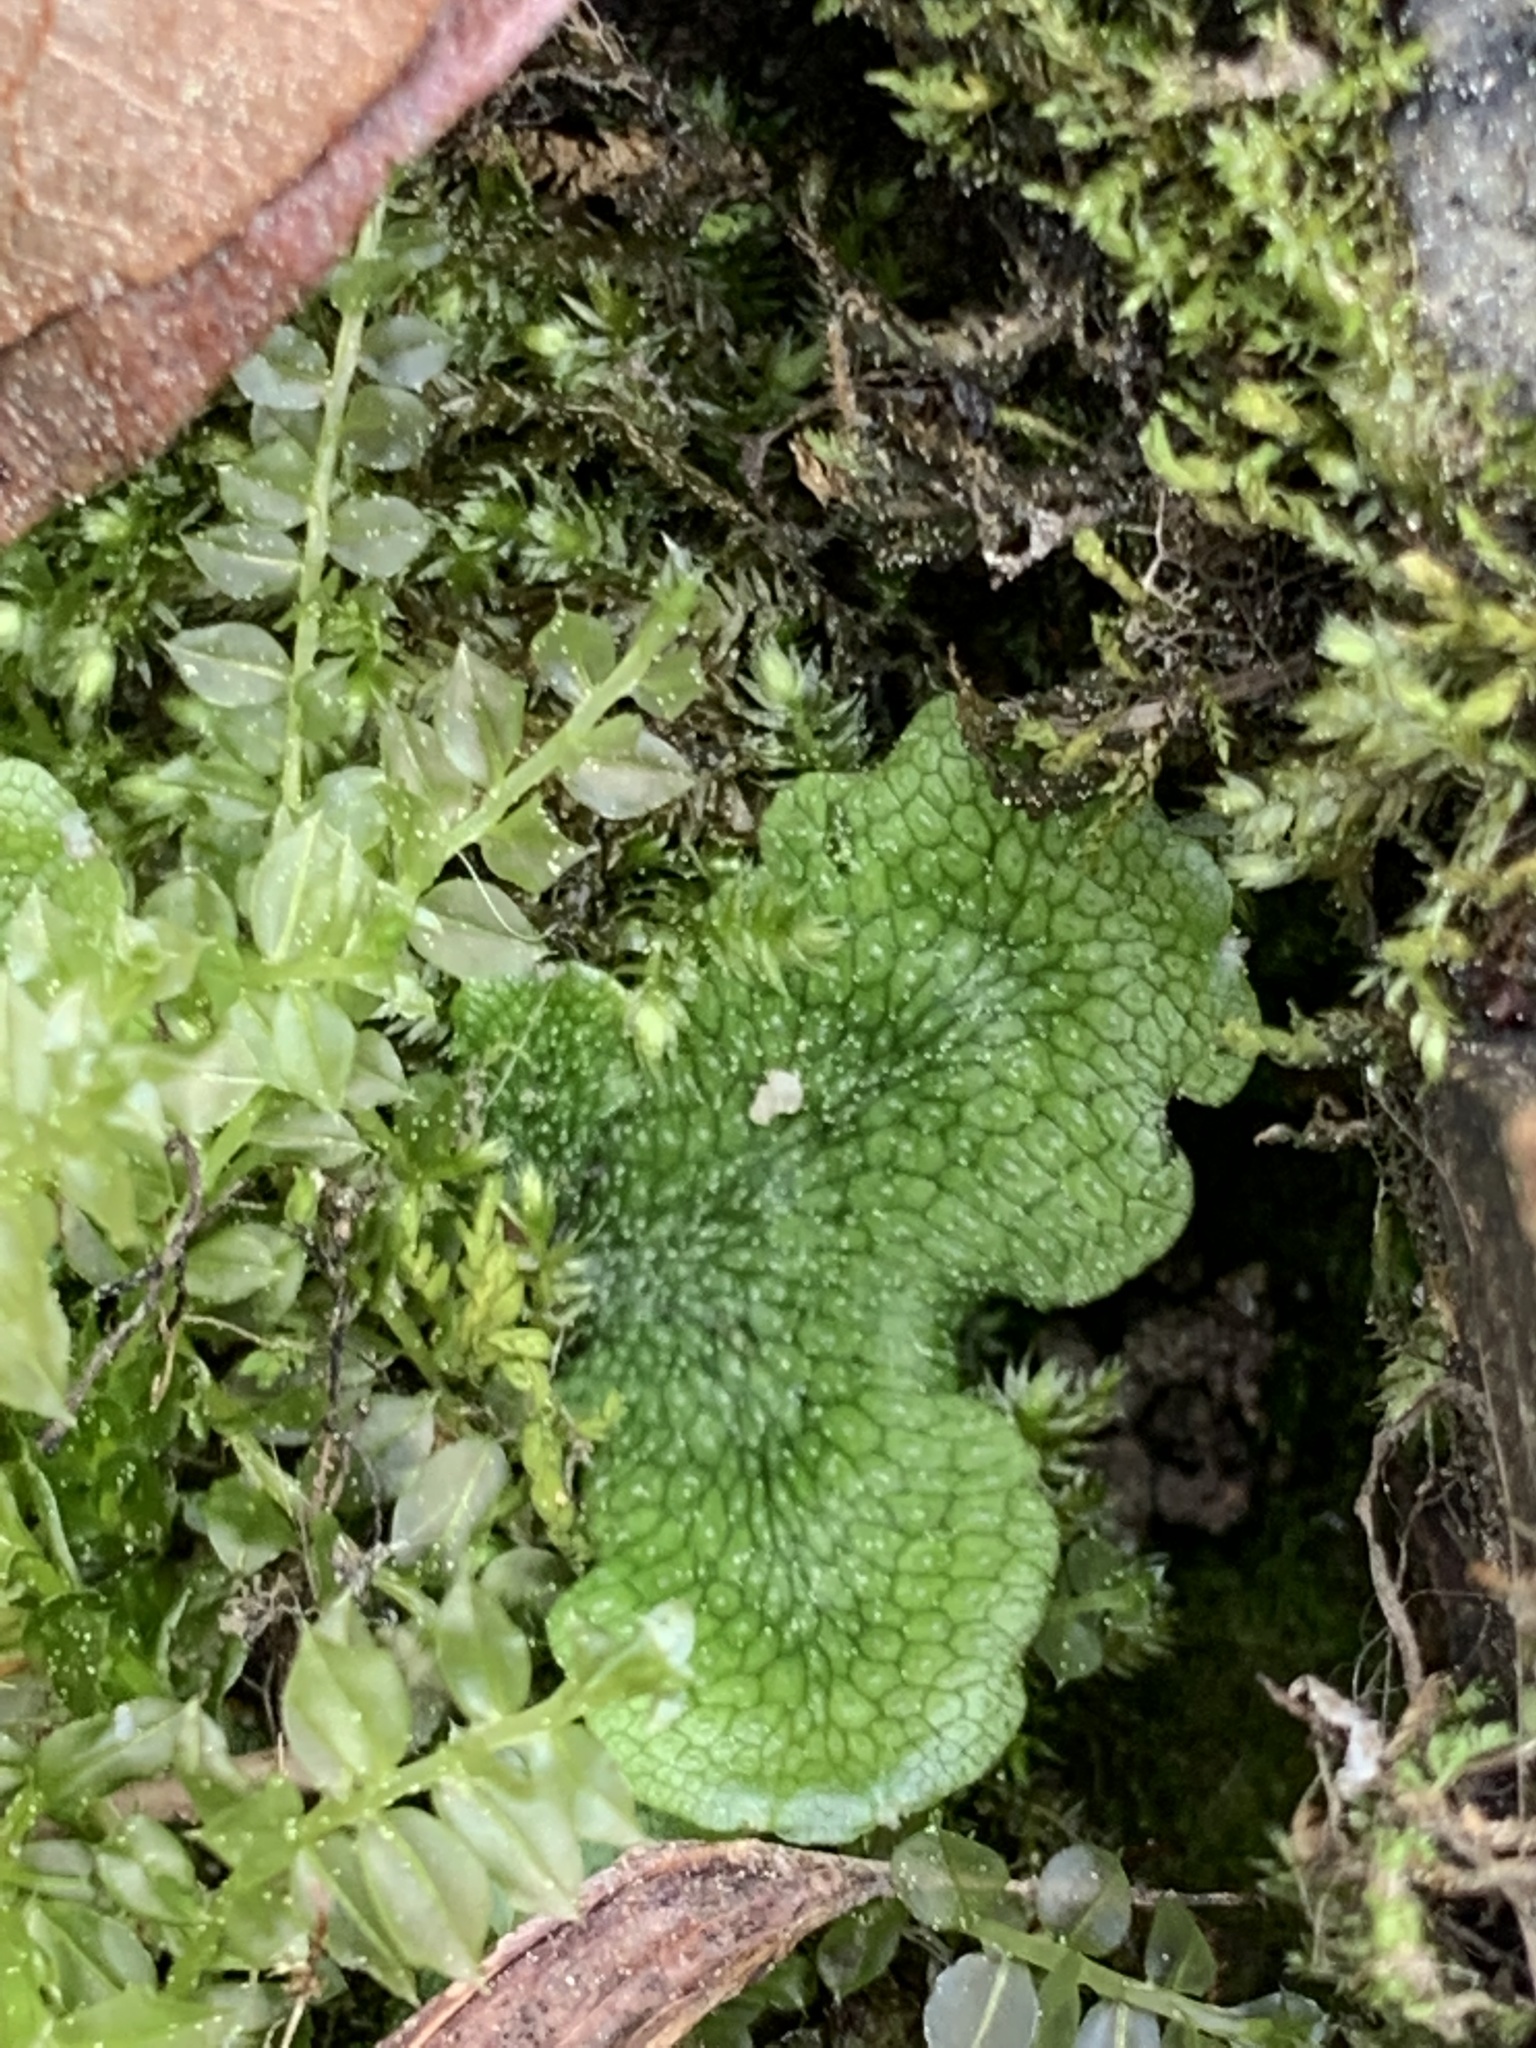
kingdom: Plantae
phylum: Marchantiophyta
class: Marchantiopsida
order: Marchantiales
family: Conocephalaceae
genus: Conocephalum
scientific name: Conocephalum salebrosum
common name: Cat-tongue liverwort
